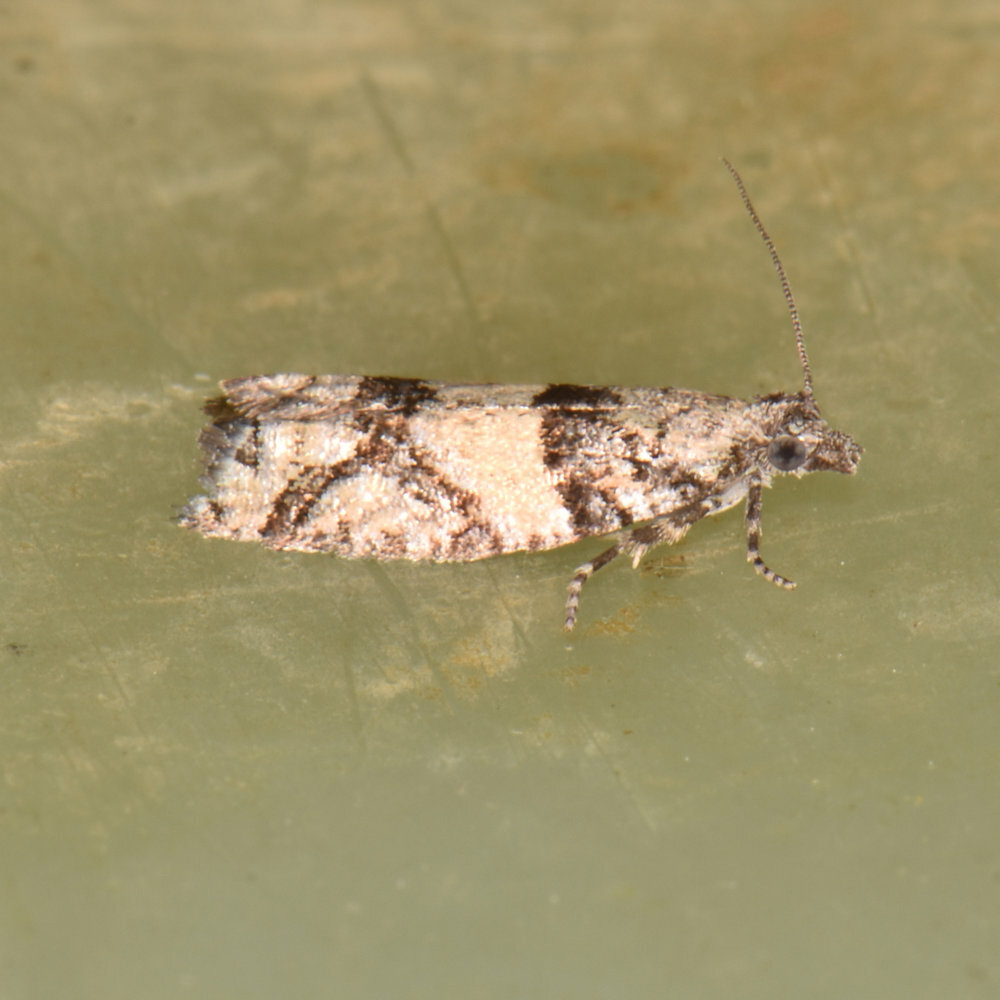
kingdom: Animalia
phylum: Arthropoda
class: Insecta
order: Lepidoptera
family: Tortricidae
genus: Epinotia
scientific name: Epinotia radicana
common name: Red-striped needleworm moth
